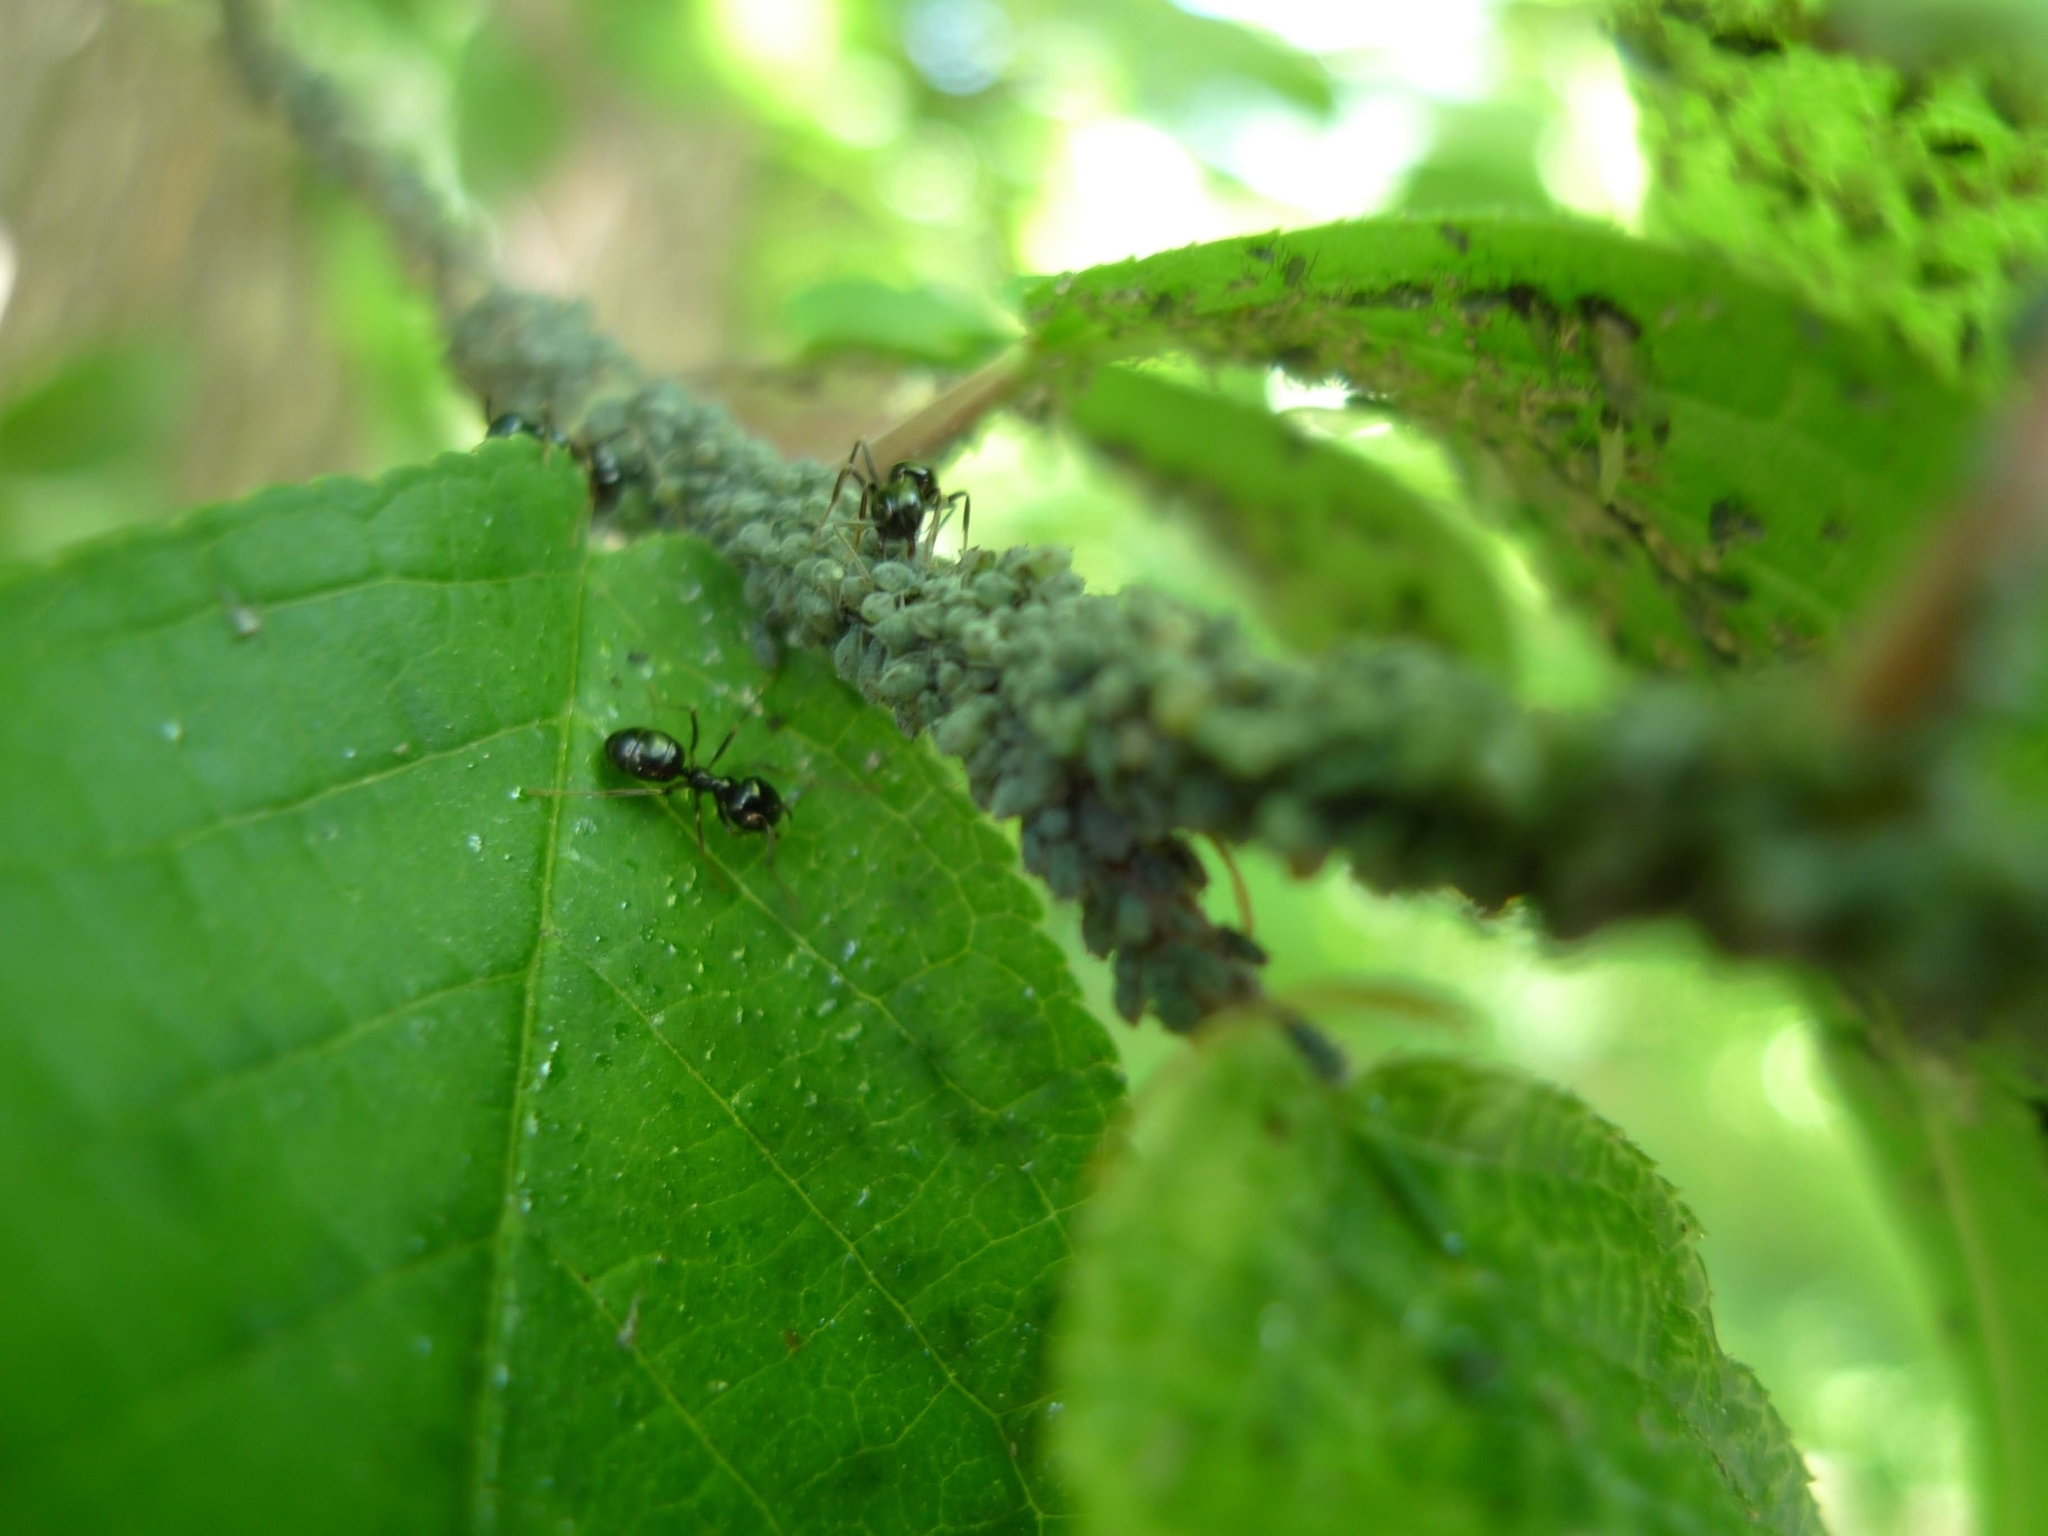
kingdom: Animalia
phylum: Arthropoda
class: Insecta
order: Hymenoptera
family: Formicidae
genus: Lasius
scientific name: Lasius fuliginosus
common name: Jet ant
